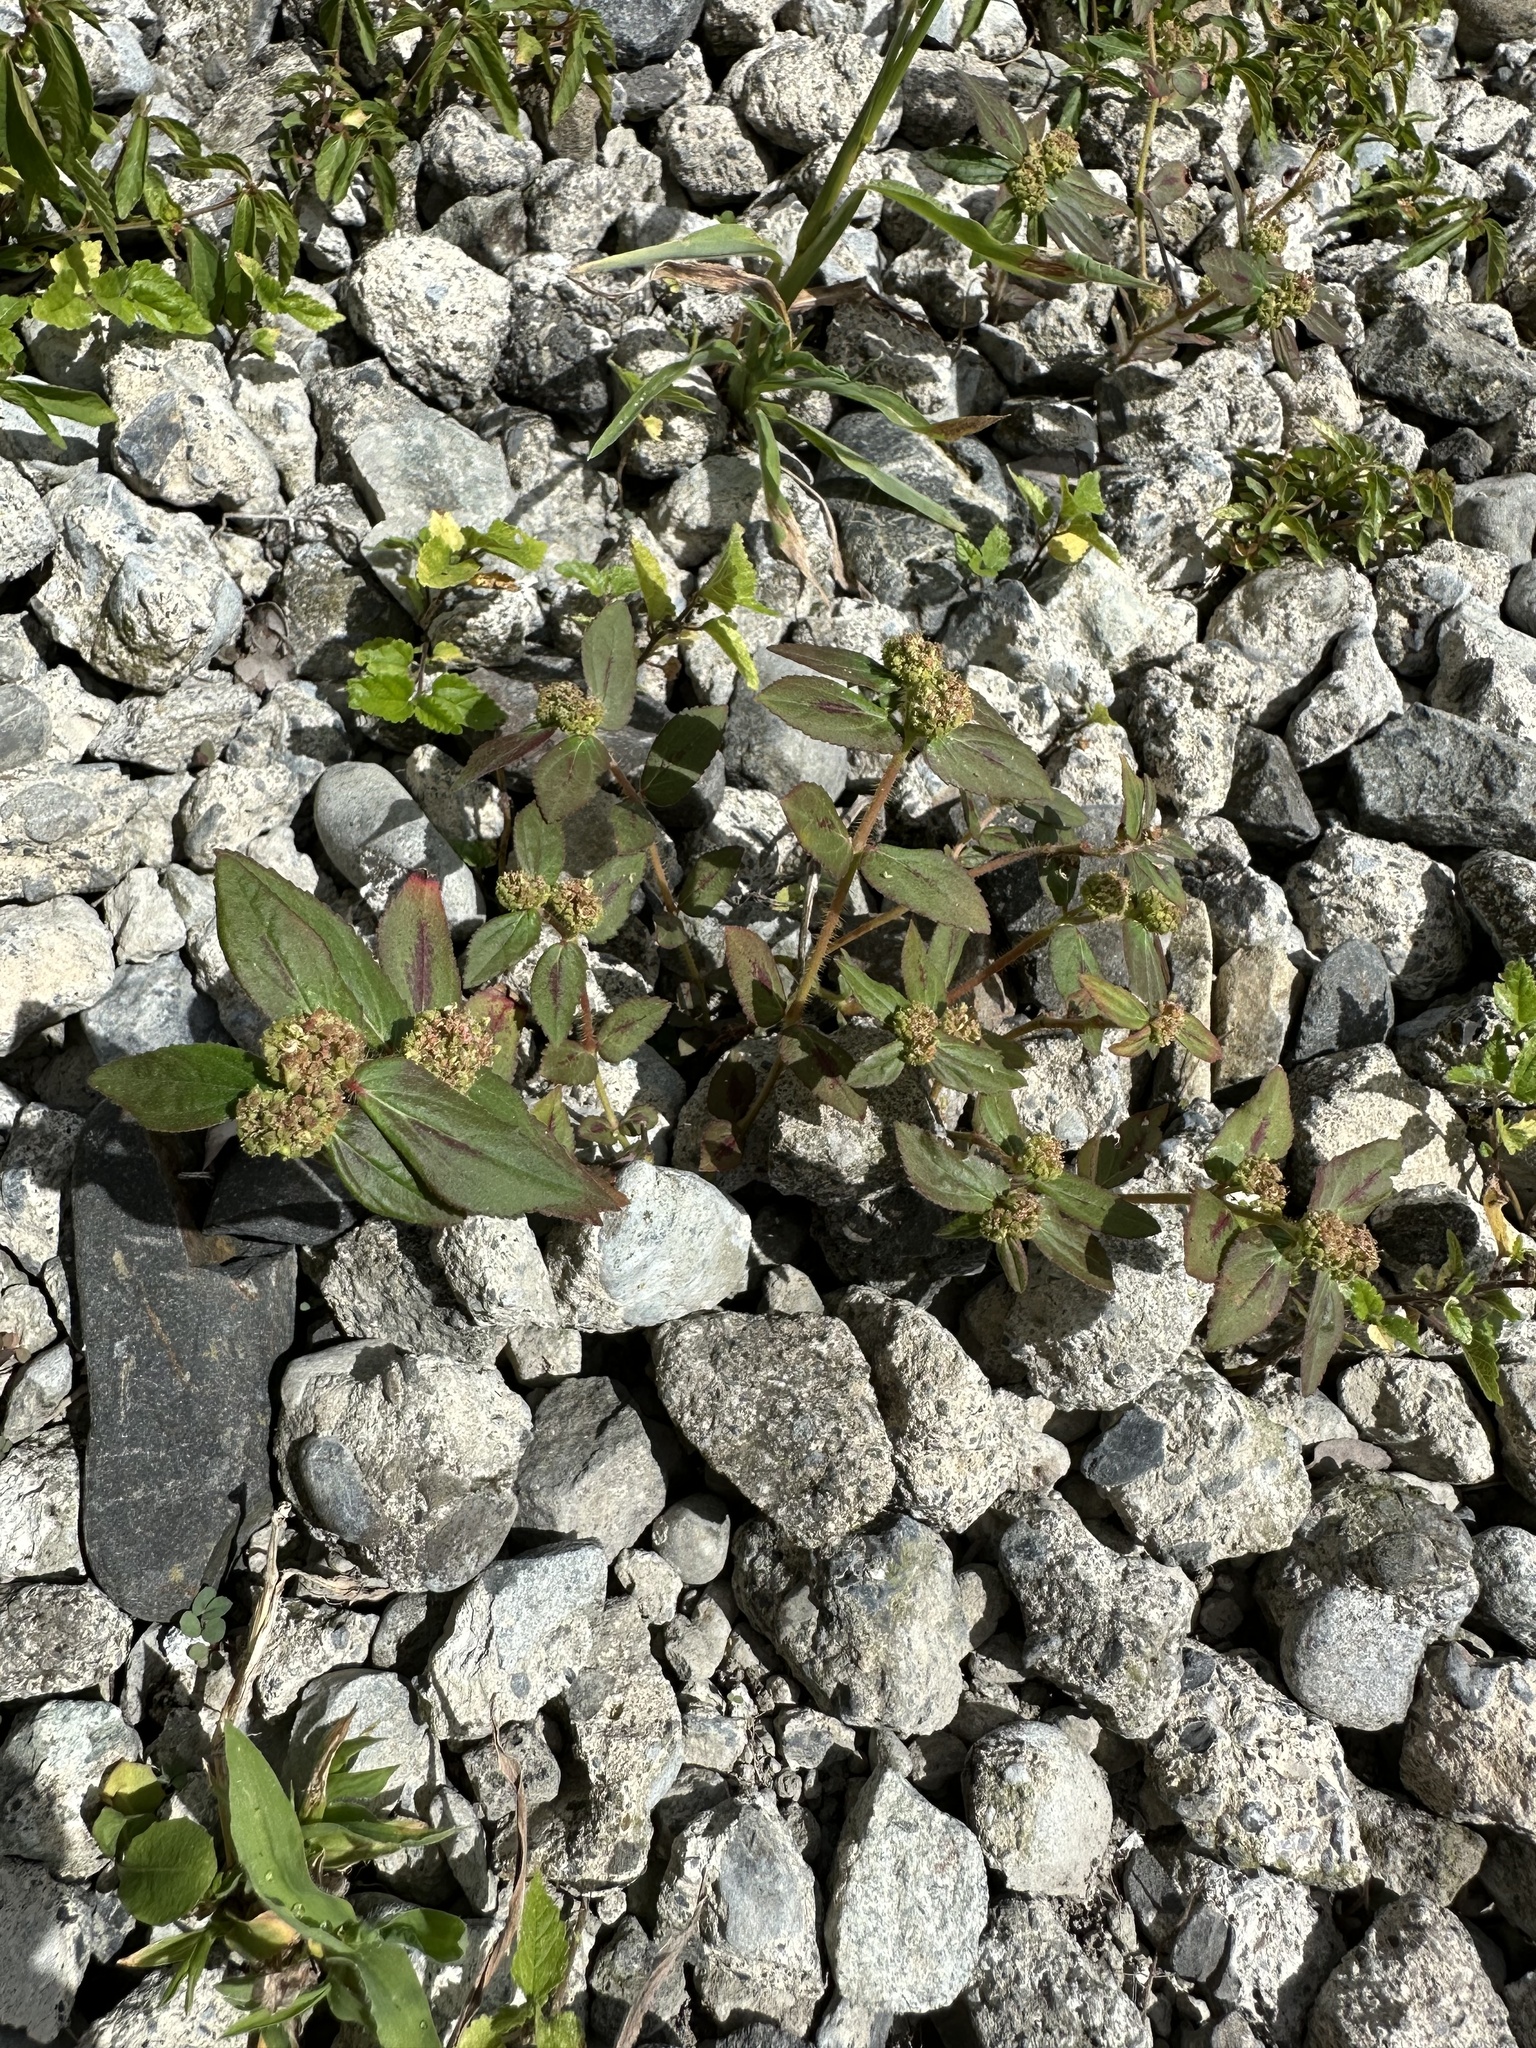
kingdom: Plantae
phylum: Tracheophyta
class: Magnoliopsida
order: Malpighiales
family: Euphorbiaceae
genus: Euphorbia
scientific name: Euphorbia hirta
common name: Pillpod sandmat
